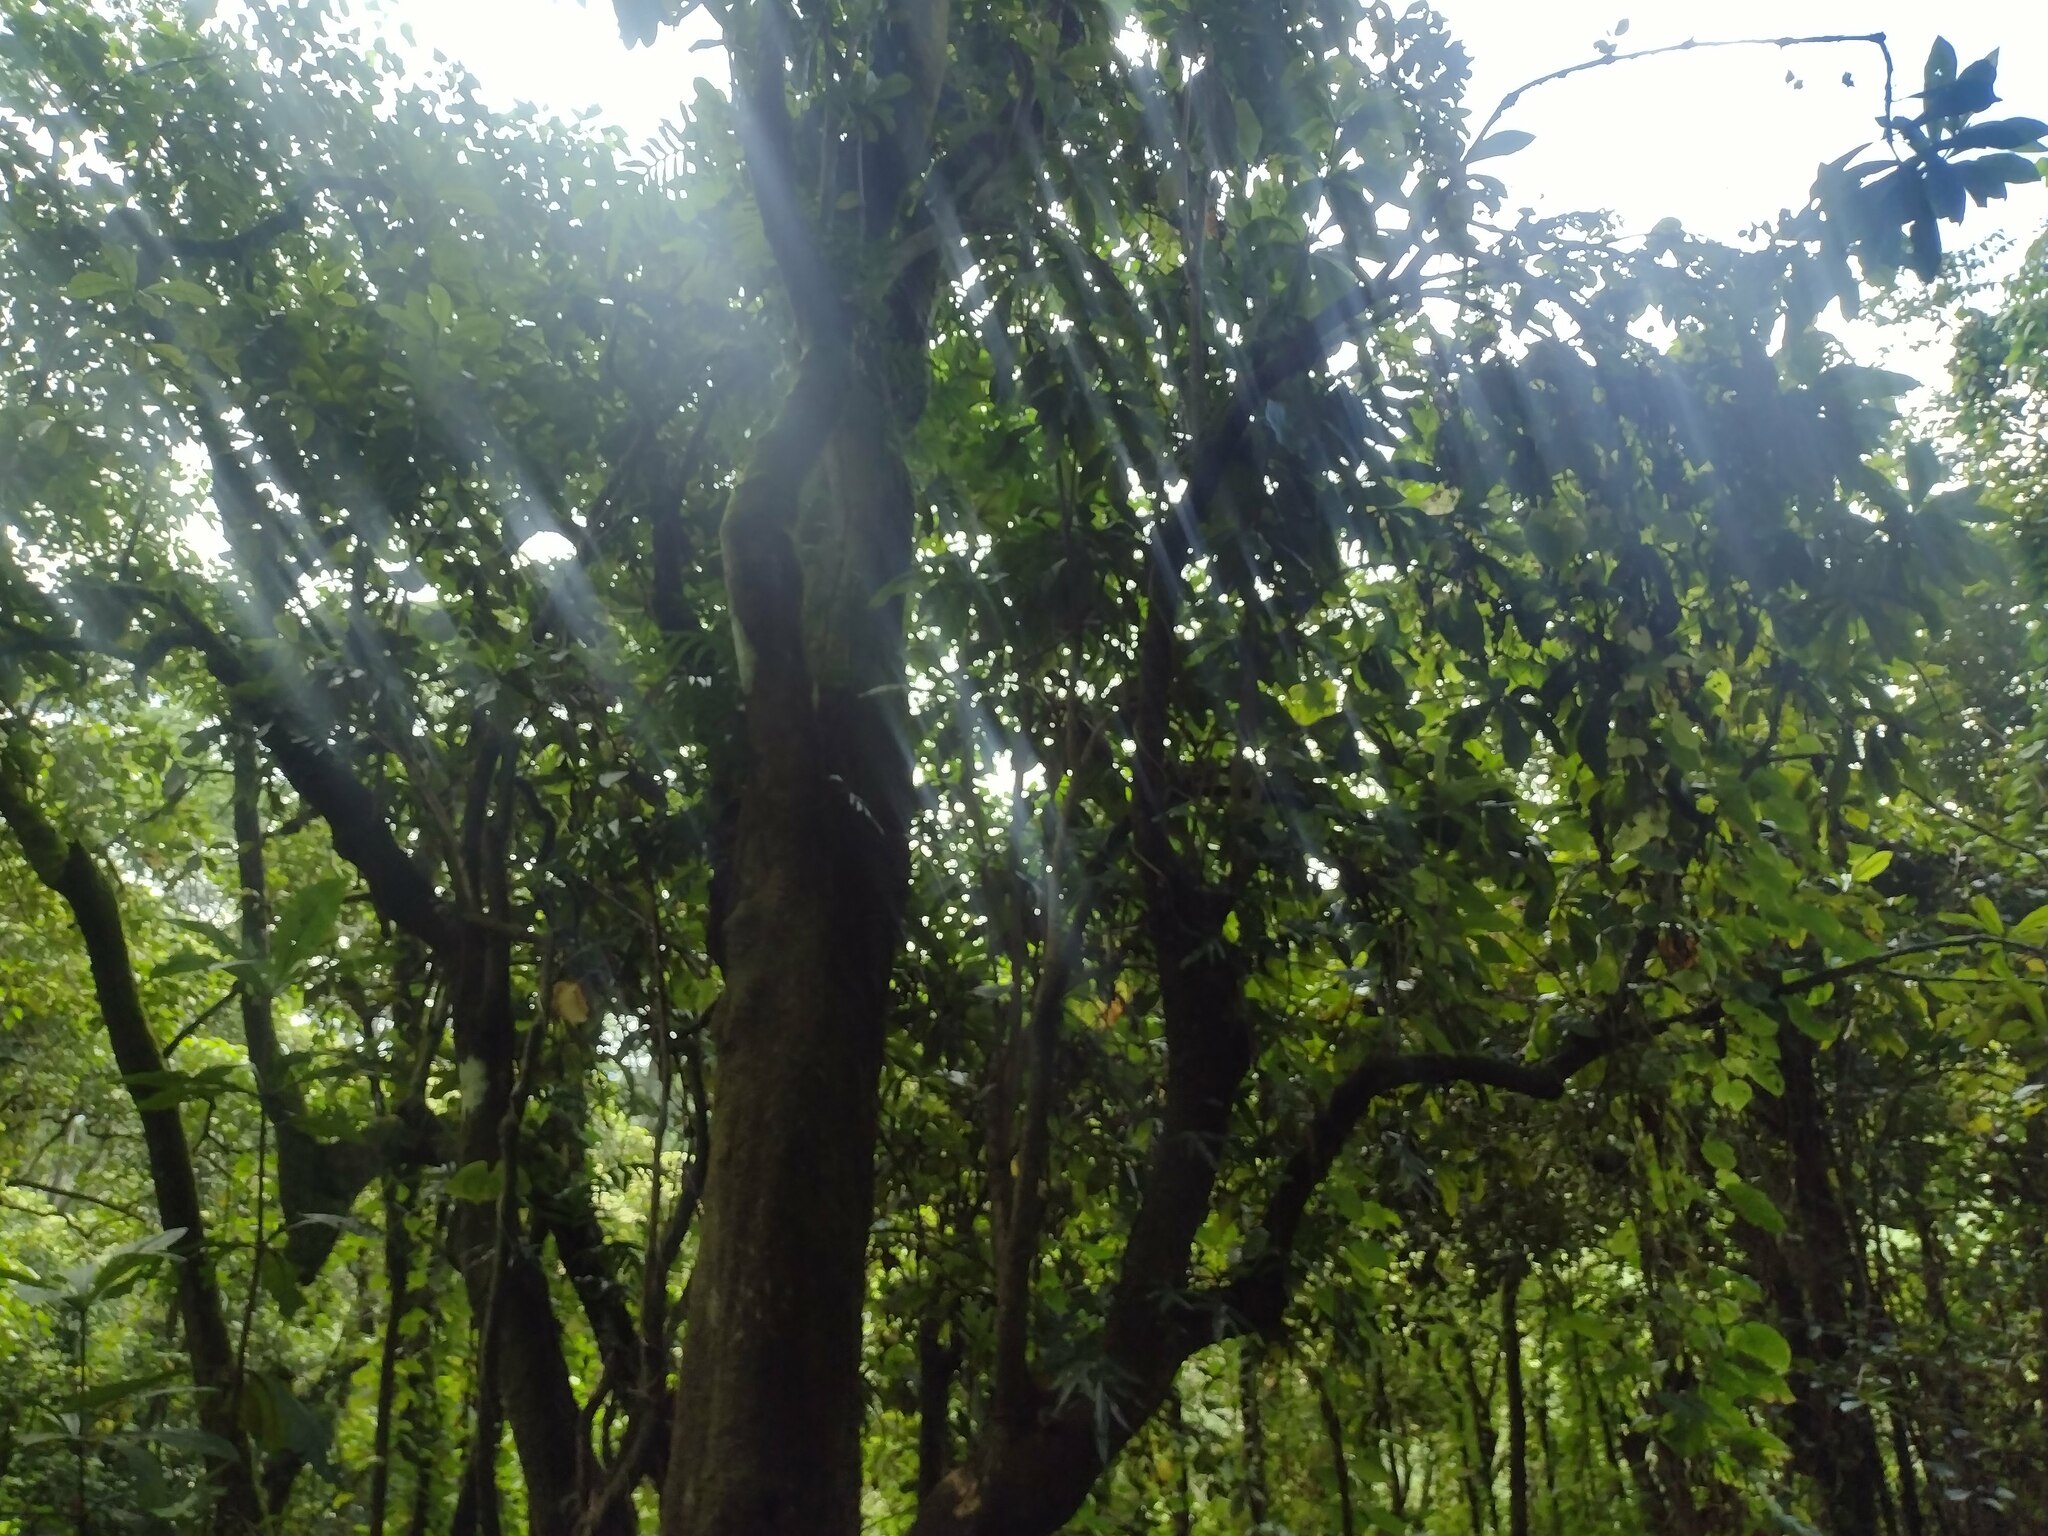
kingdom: Plantae
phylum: Tracheophyta
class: Magnoliopsida
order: Caryophyllales
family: Nyctaginaceae
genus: Ceodes
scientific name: Ceodes umbellifera
